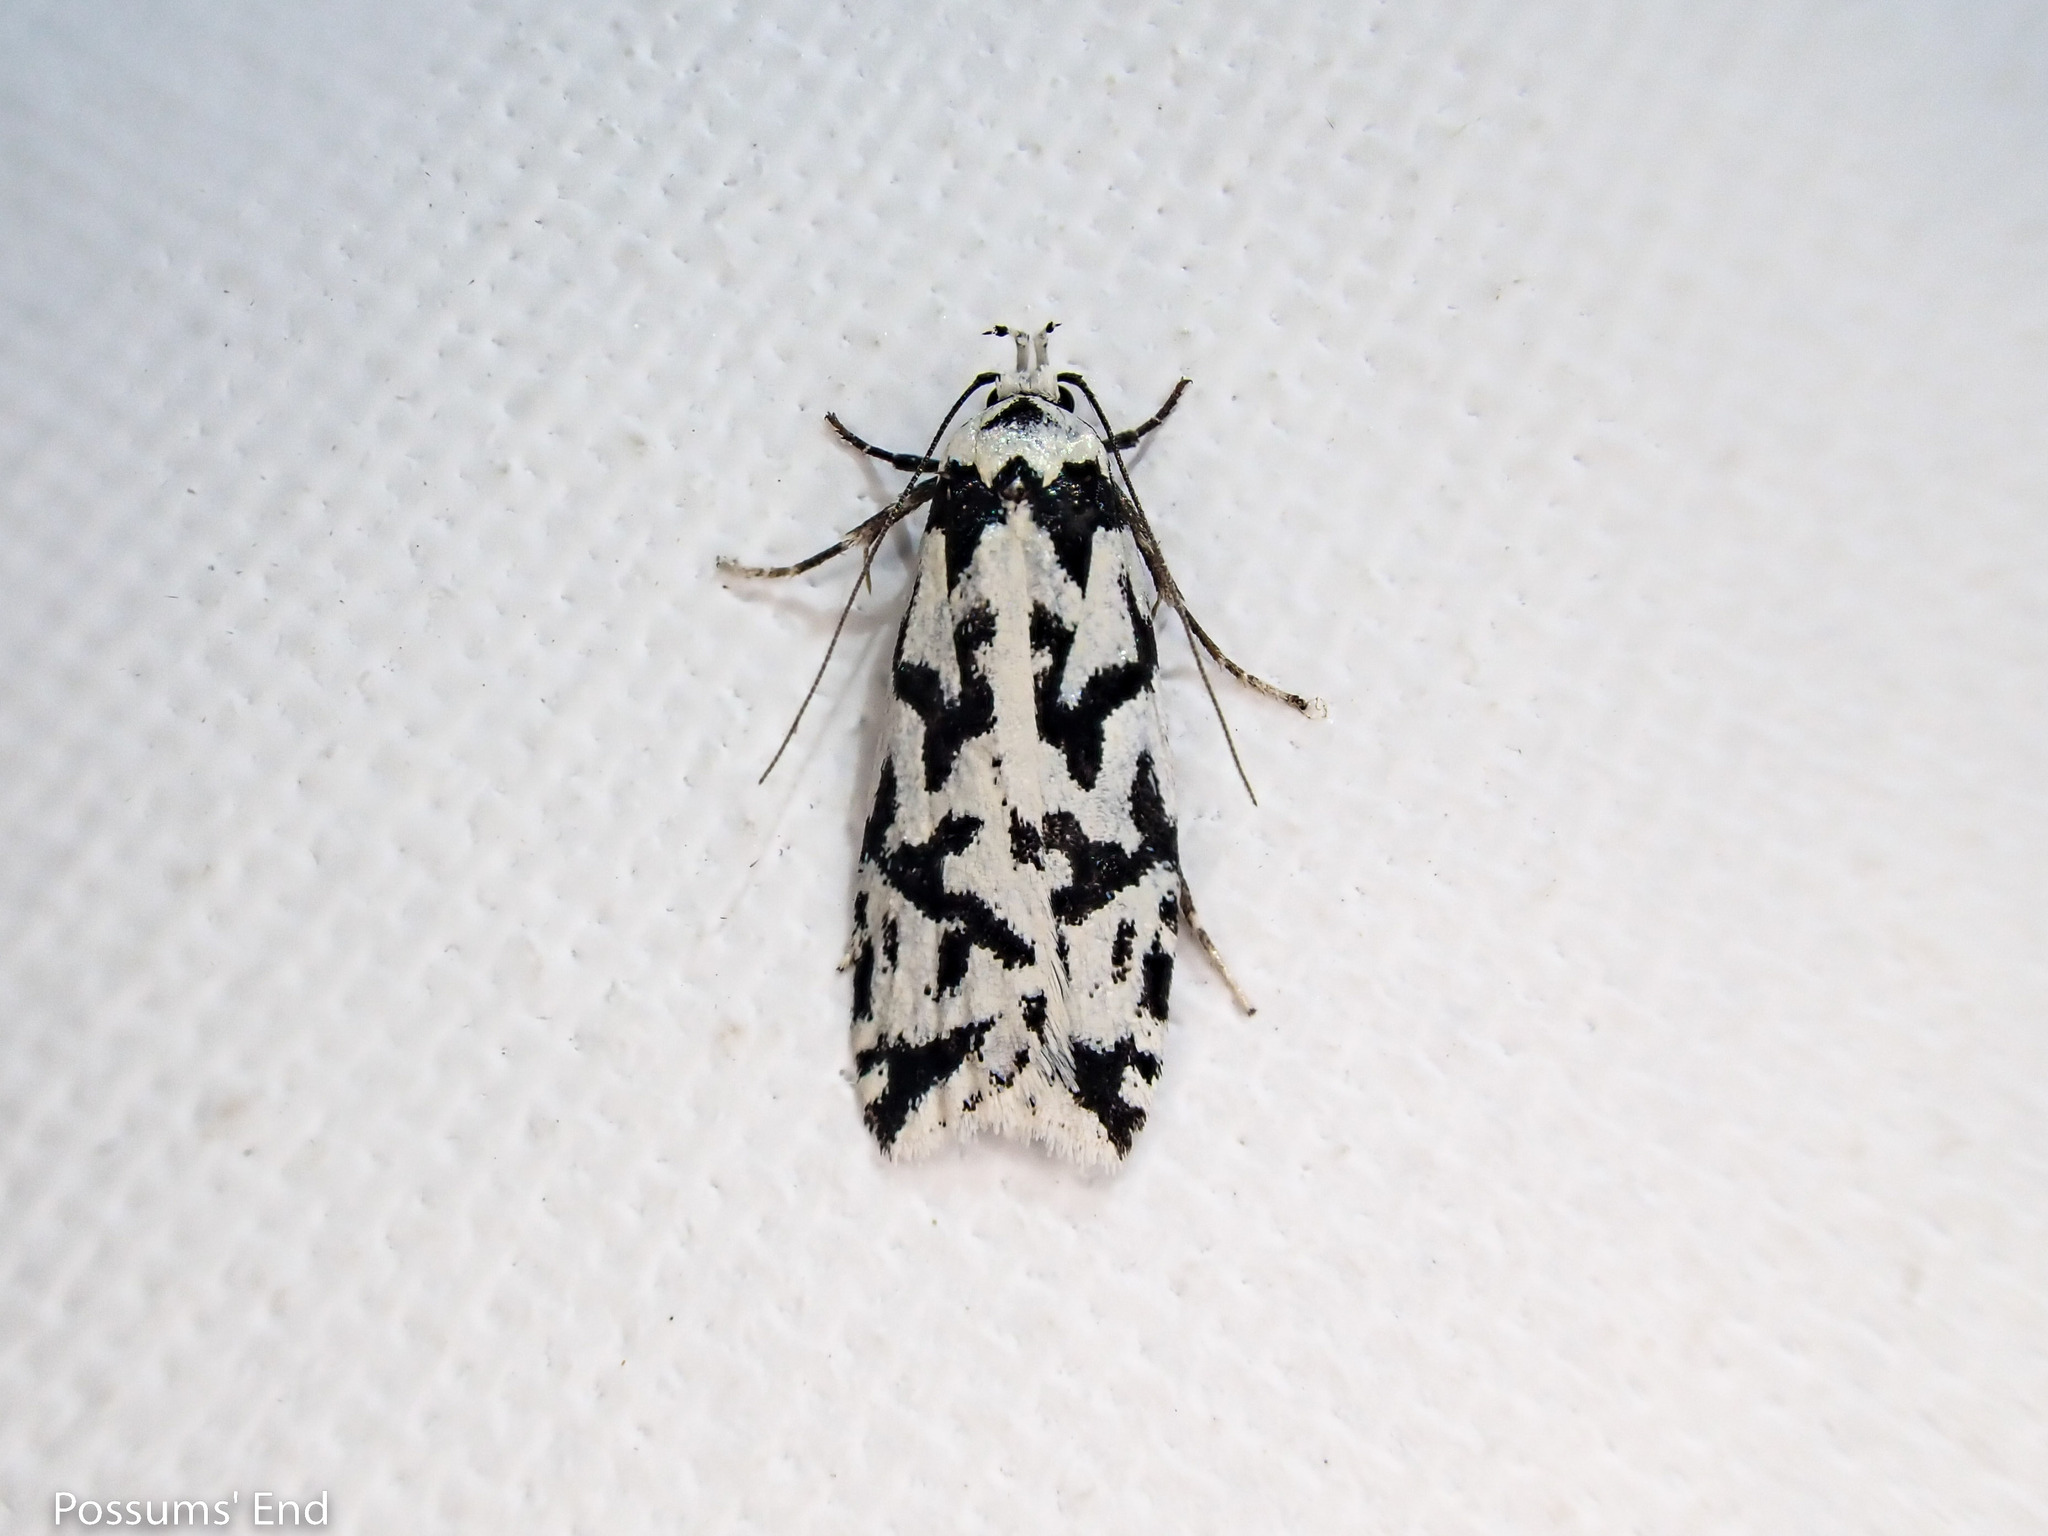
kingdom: Animalia
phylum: Arthropoda
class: Insecta
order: Lepidoptera
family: Oecophoridae
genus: Izatha
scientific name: Izatha acmonias
